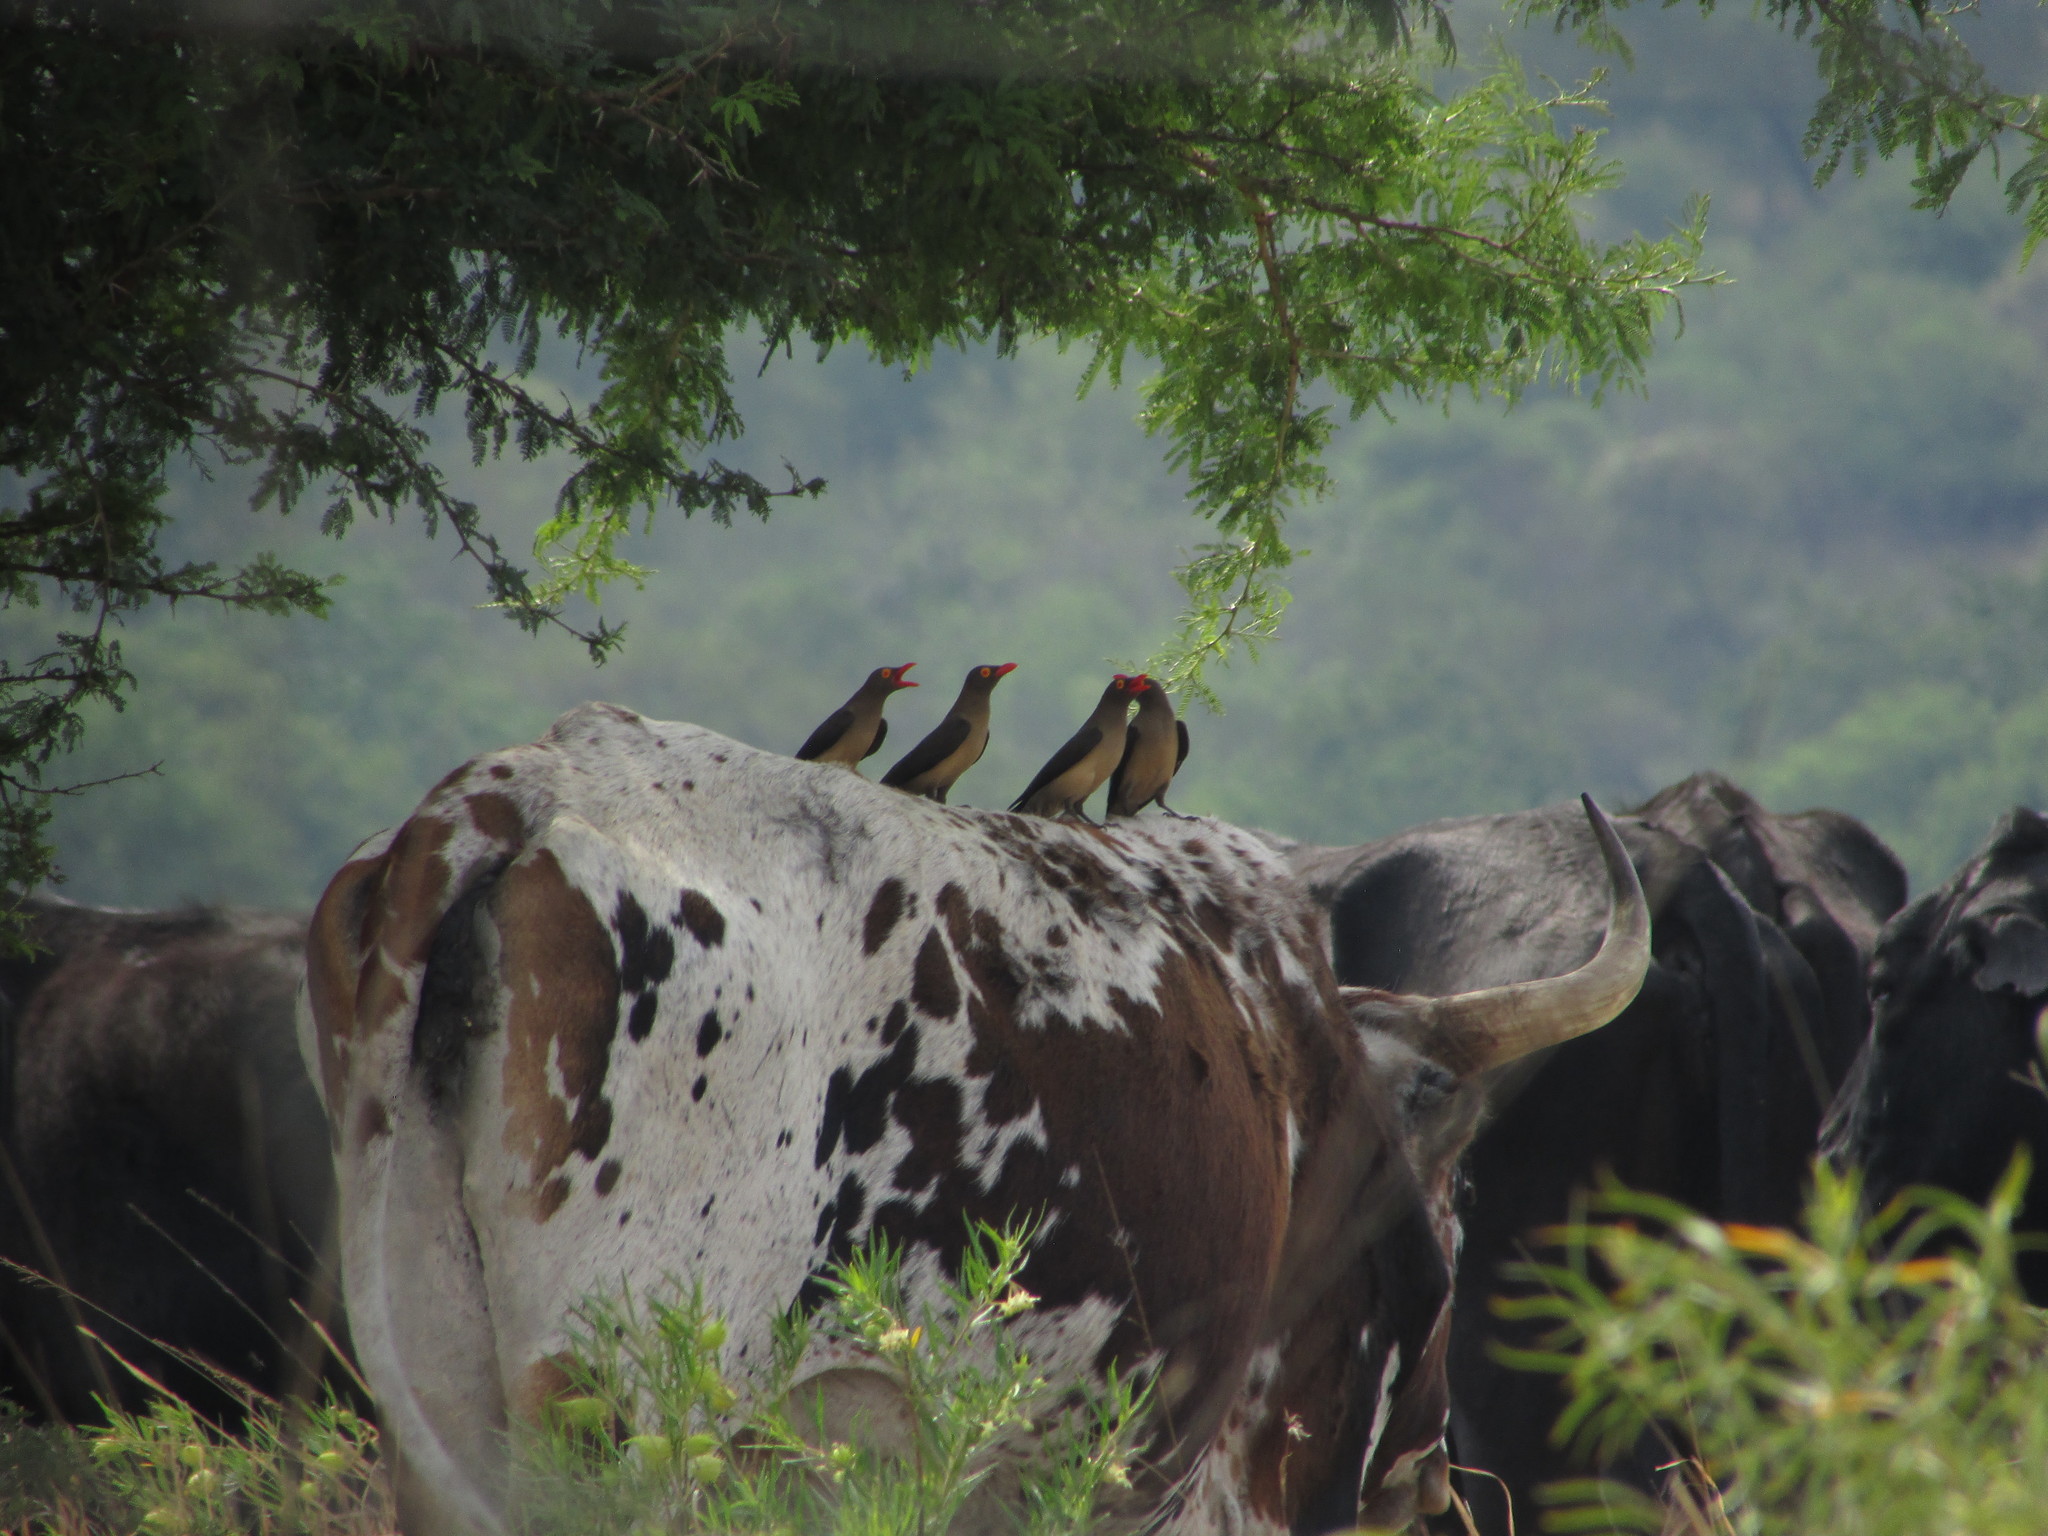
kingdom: Animalia
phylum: Chordata
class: Aves
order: Passeriformes
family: Buphagidae
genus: Buphagus
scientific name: Buphagus erythrorhynchus
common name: Red-billed oxpecker
